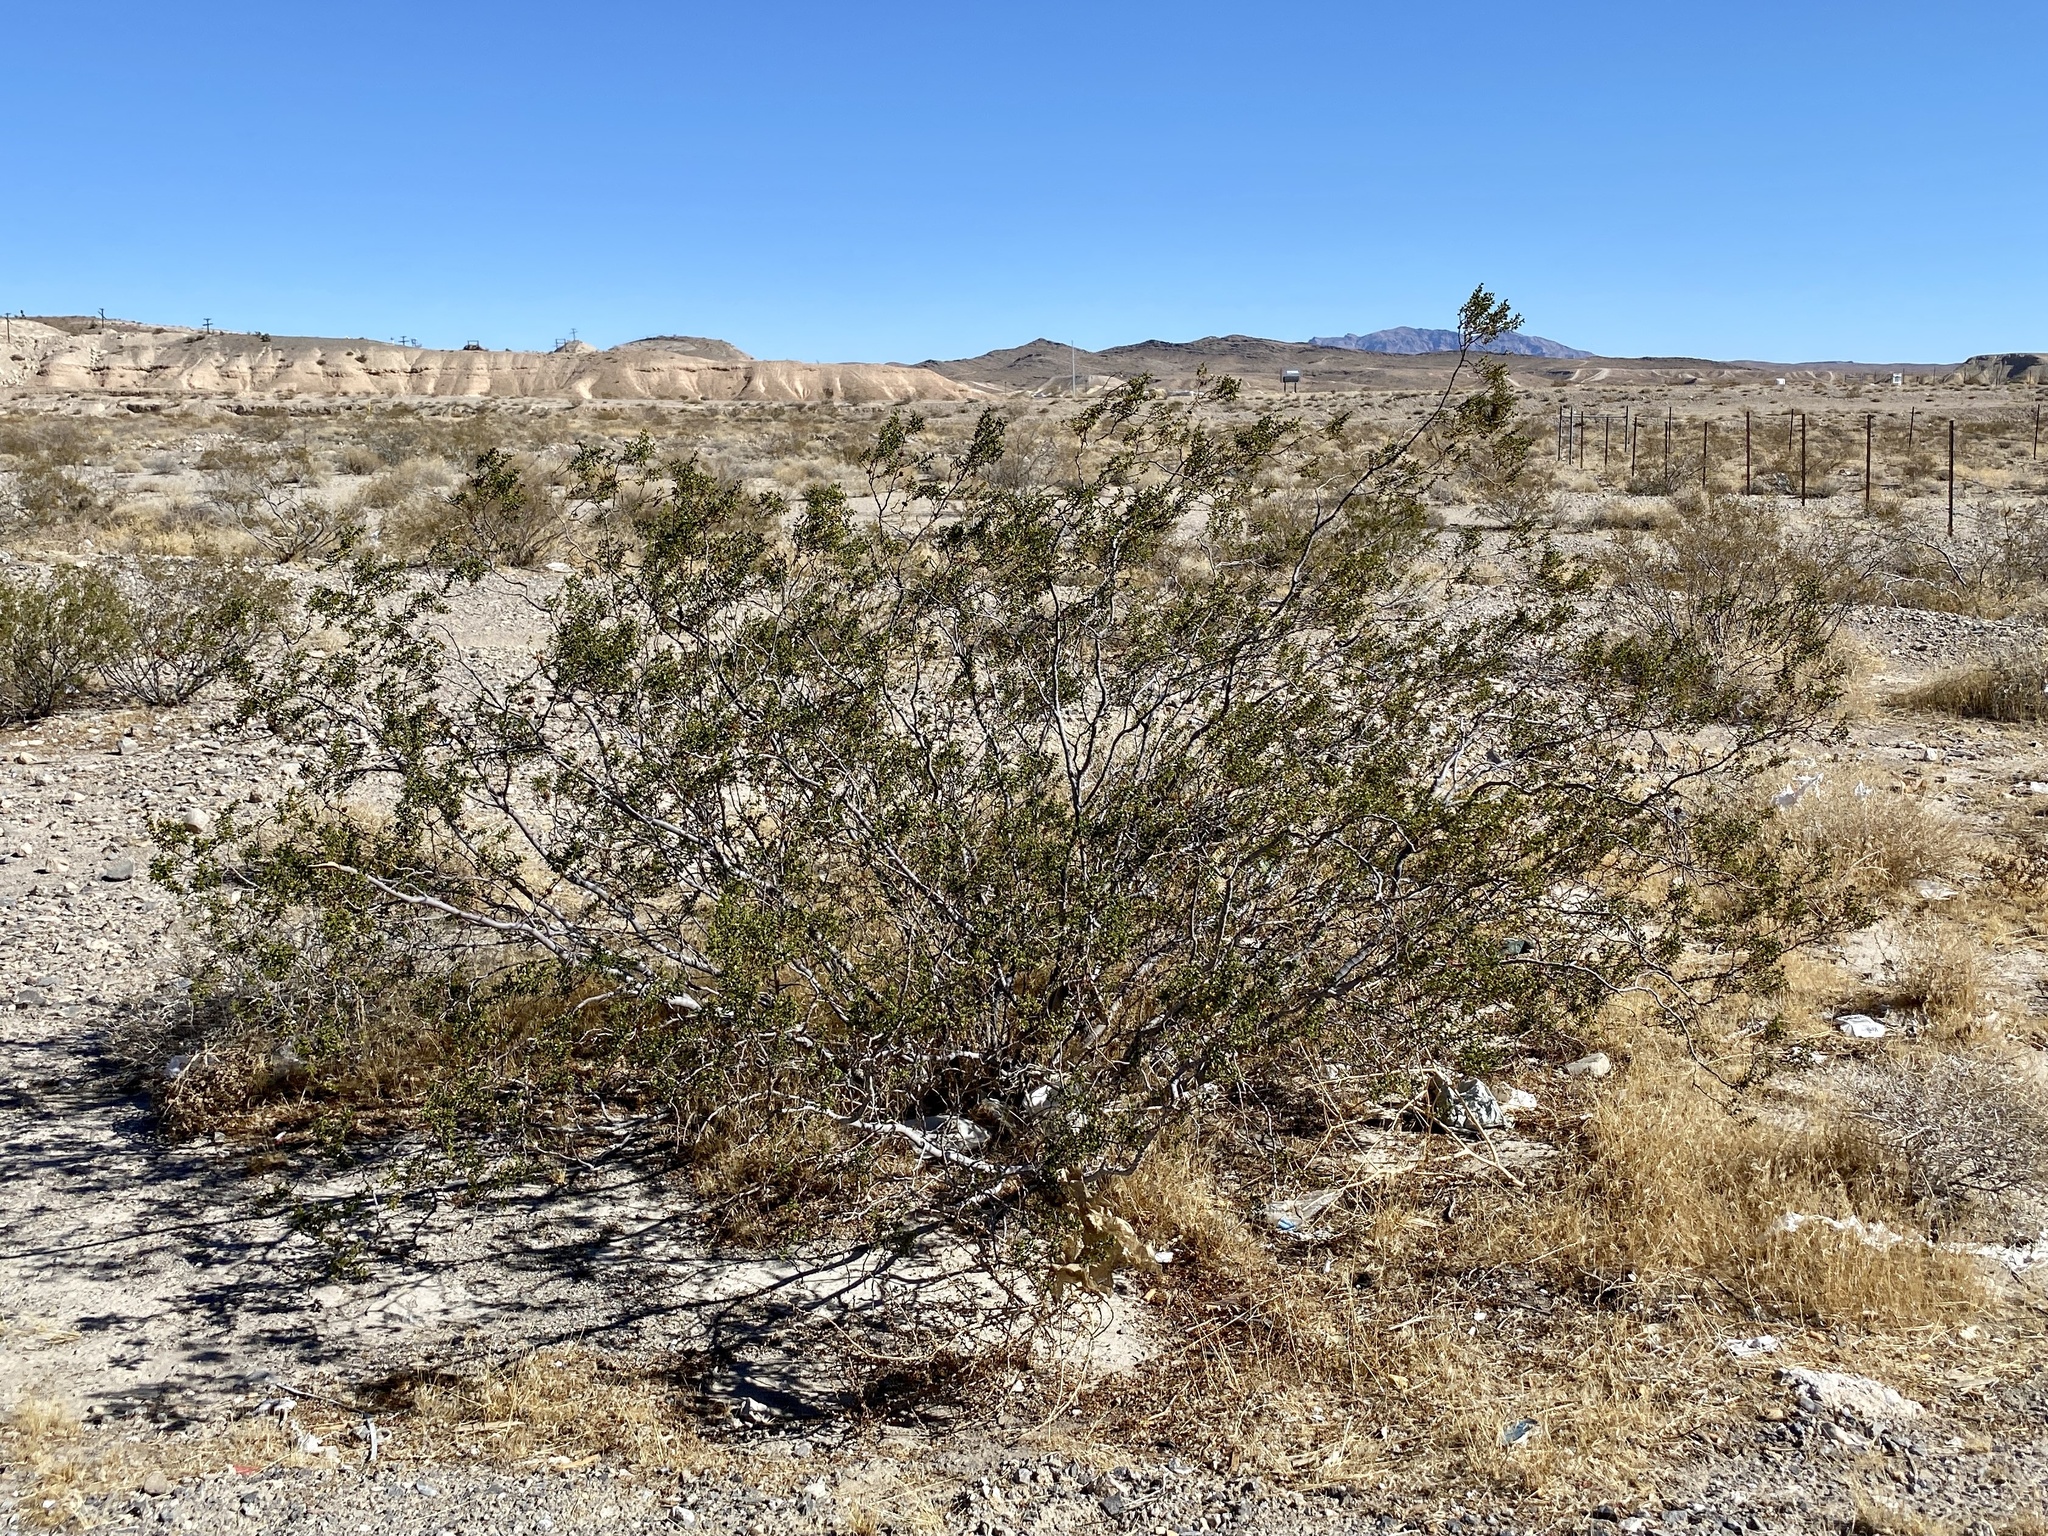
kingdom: Plantae
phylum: Tracheophyta
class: Magnoliopsida
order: Zygophyllales
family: Zygophyllaceae
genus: Larrea
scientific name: Larrea tridentata
